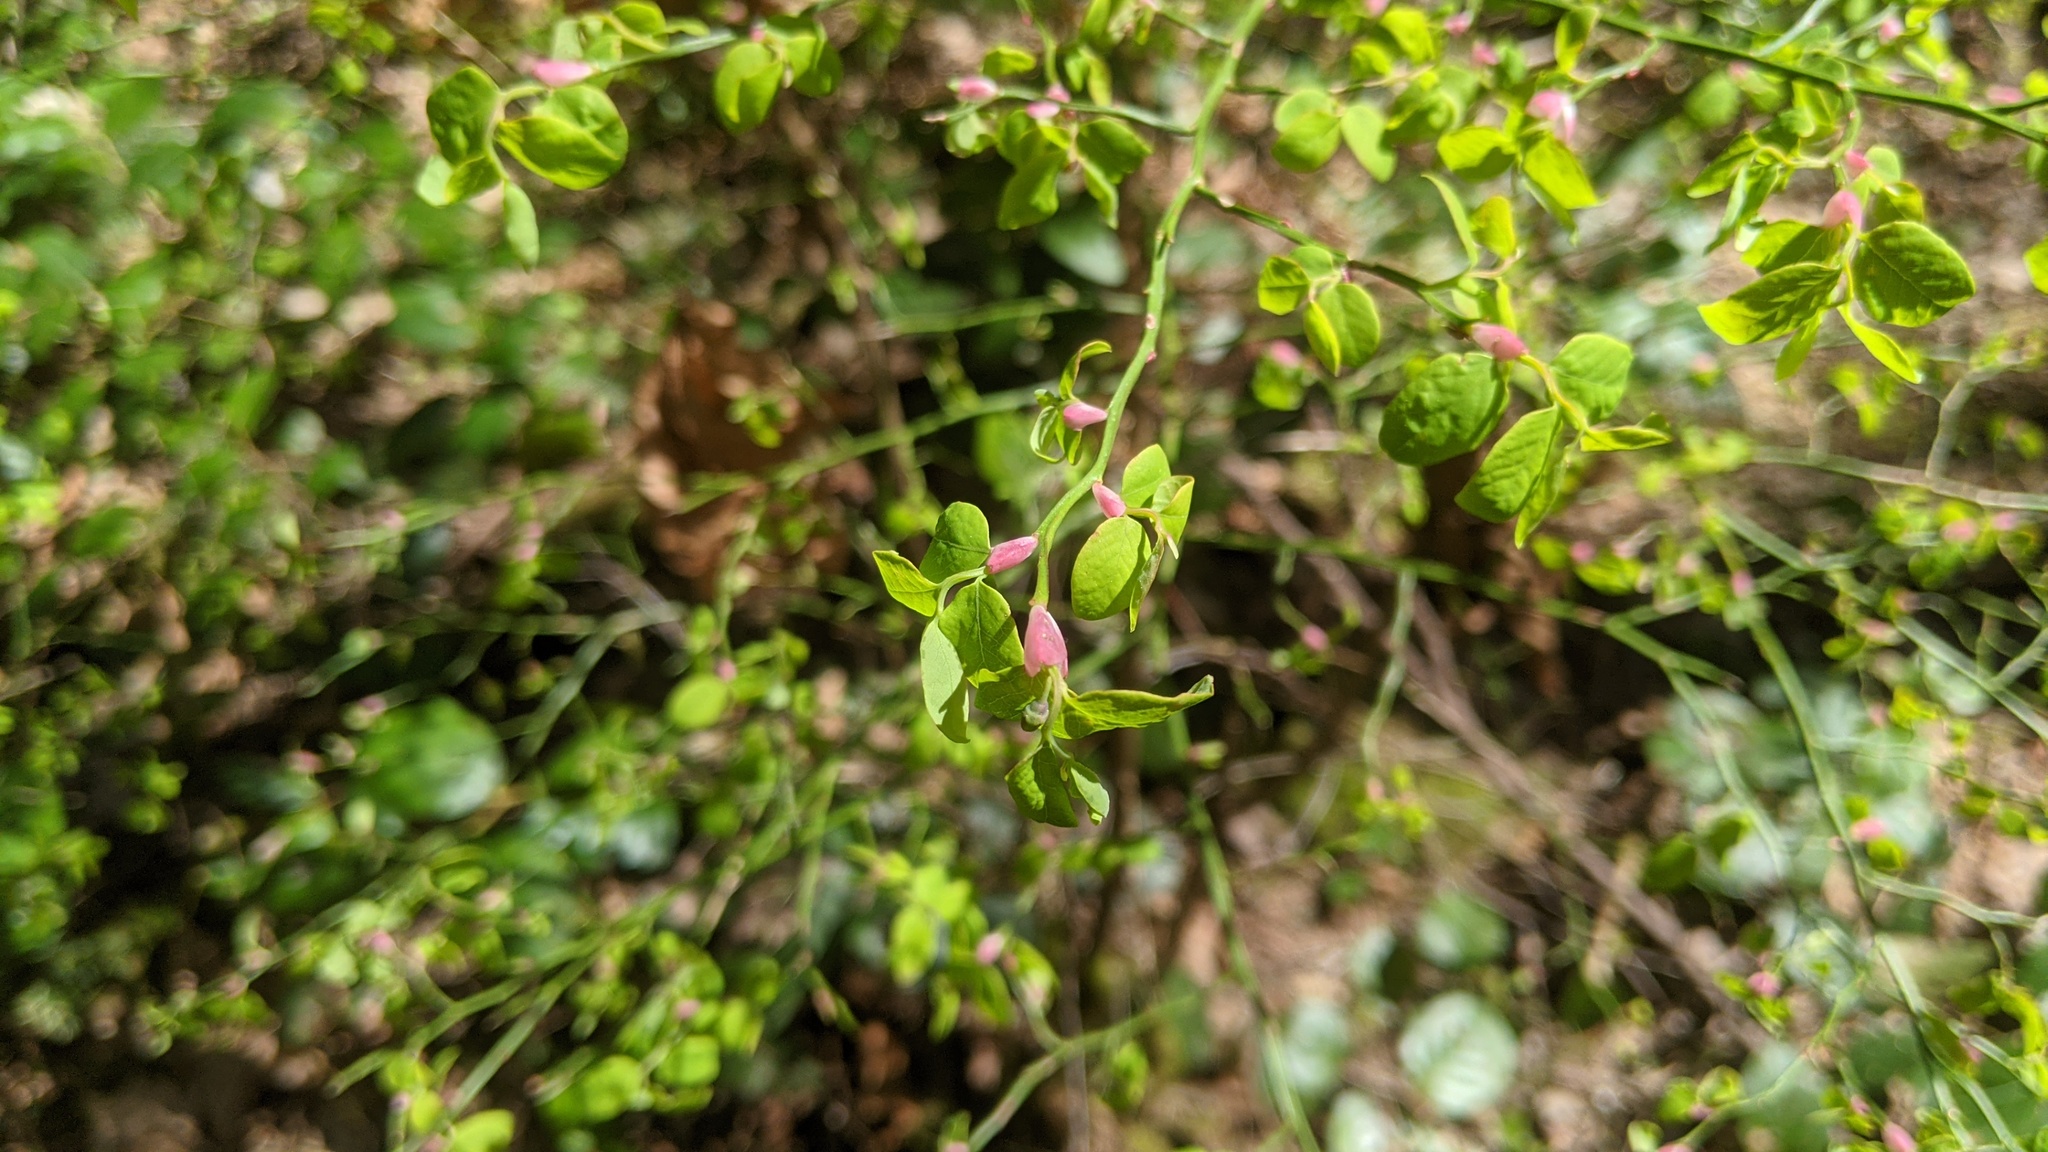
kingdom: Plantae
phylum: Tracheophyta
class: Magnoliopsida
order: Ericales
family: Ericaceae
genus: Vaccinium
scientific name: Vaccinium parvifolium
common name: Red-huckleberry
